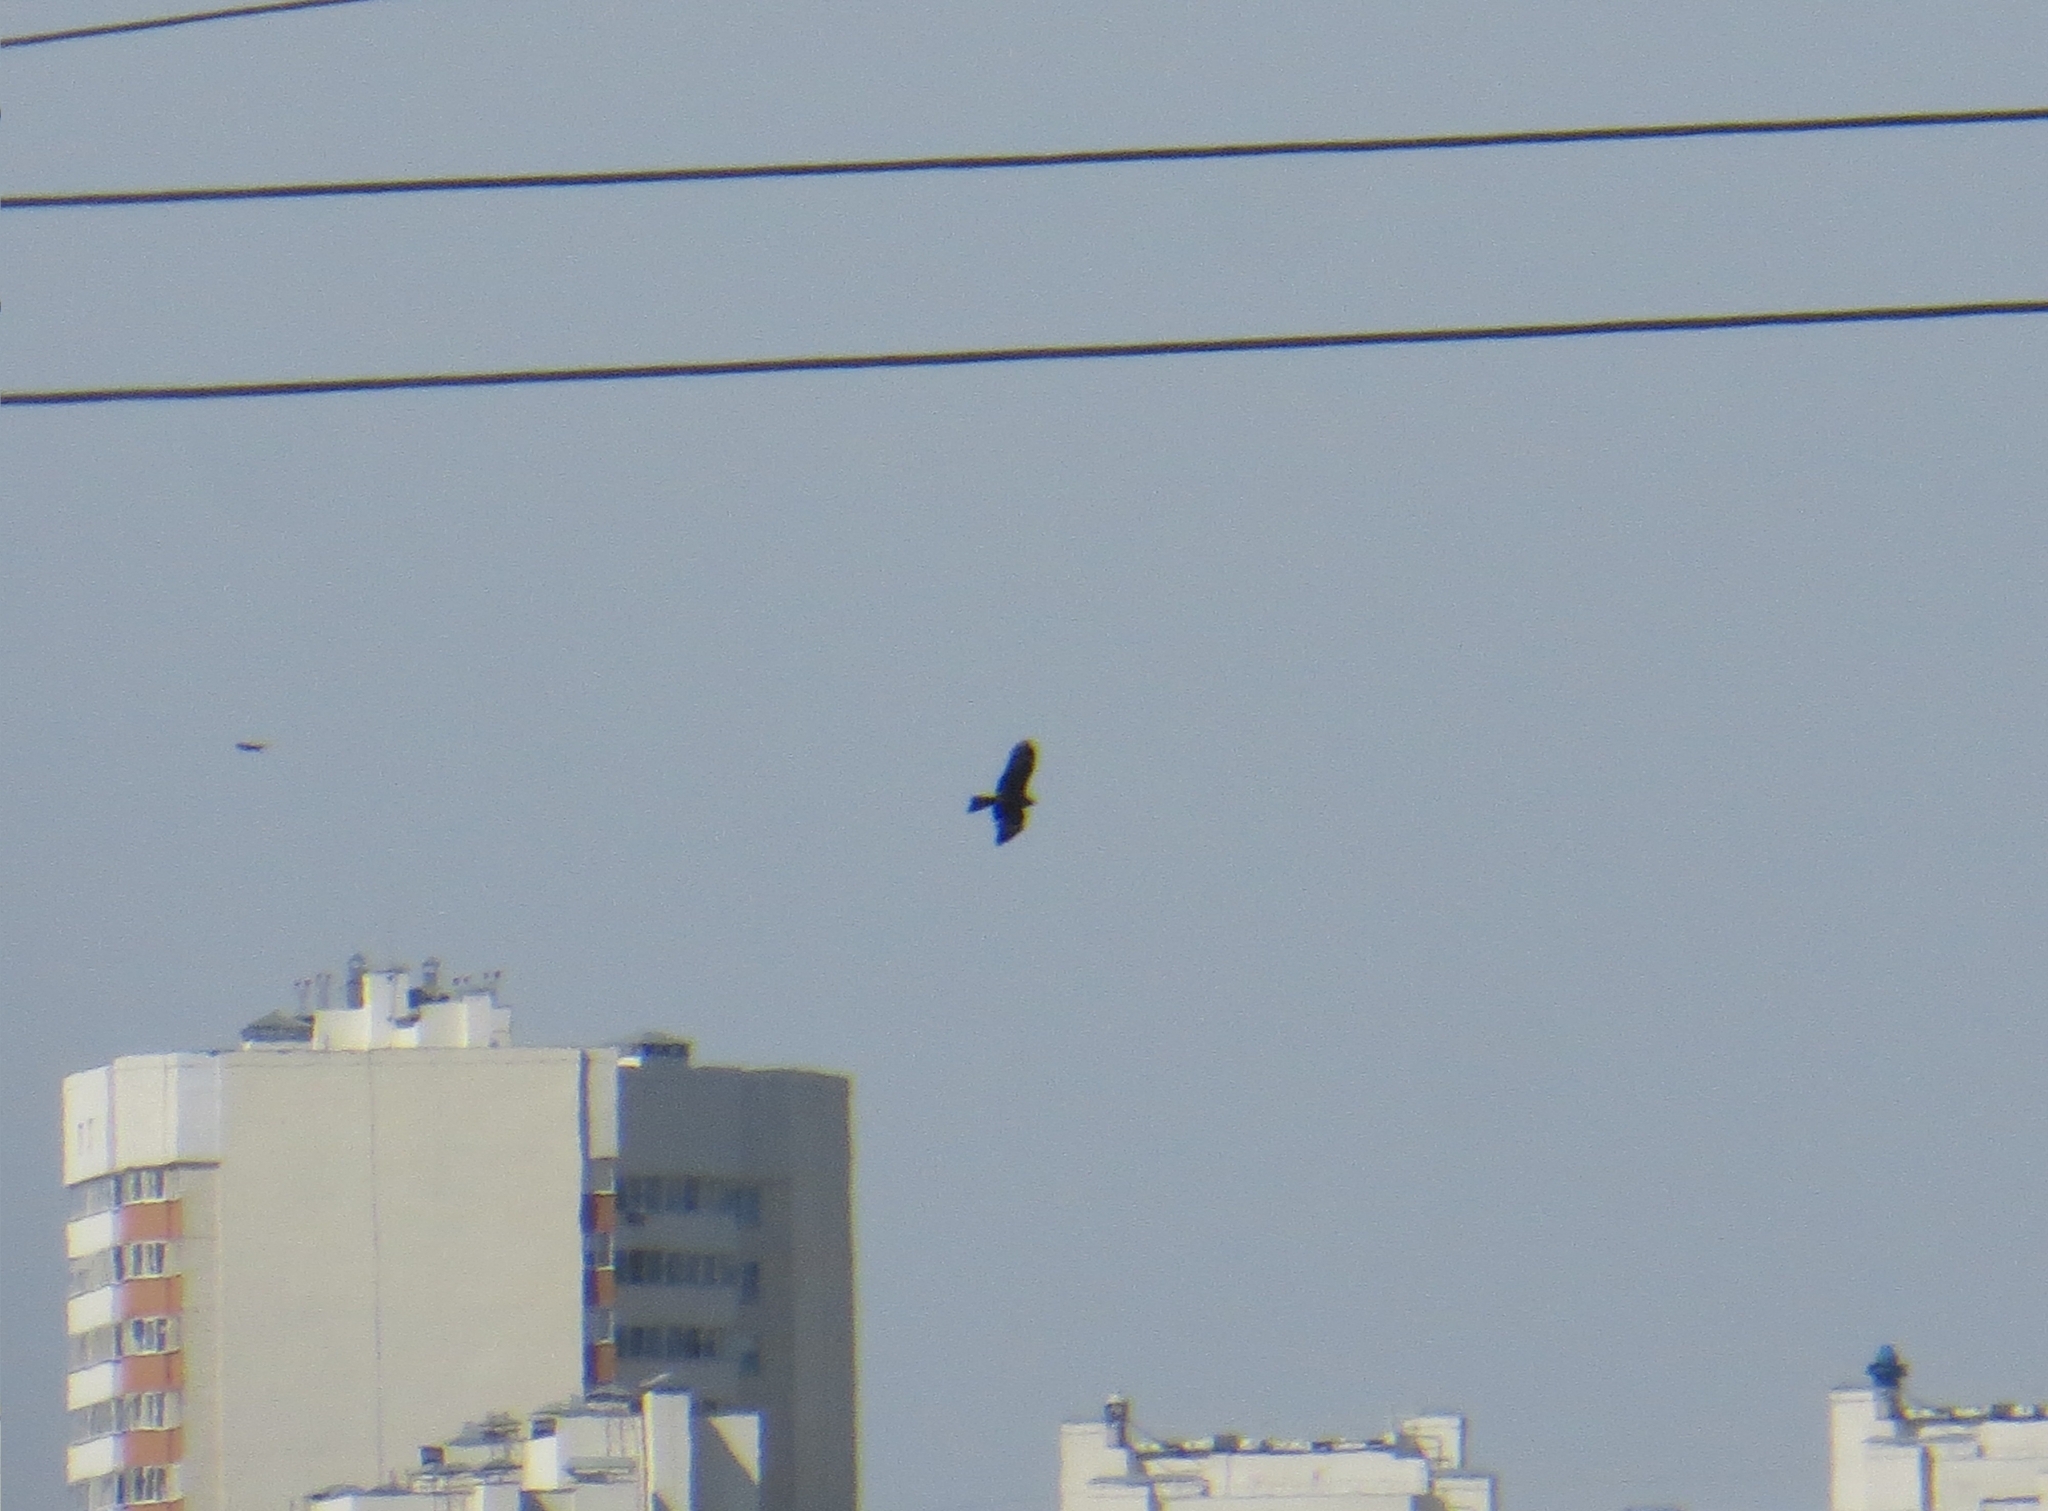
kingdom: Animalia
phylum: Chordata
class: Aves
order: Accipitriformes
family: Accipitridae
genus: Milvus
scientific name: Milvus migrans
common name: Black kite
